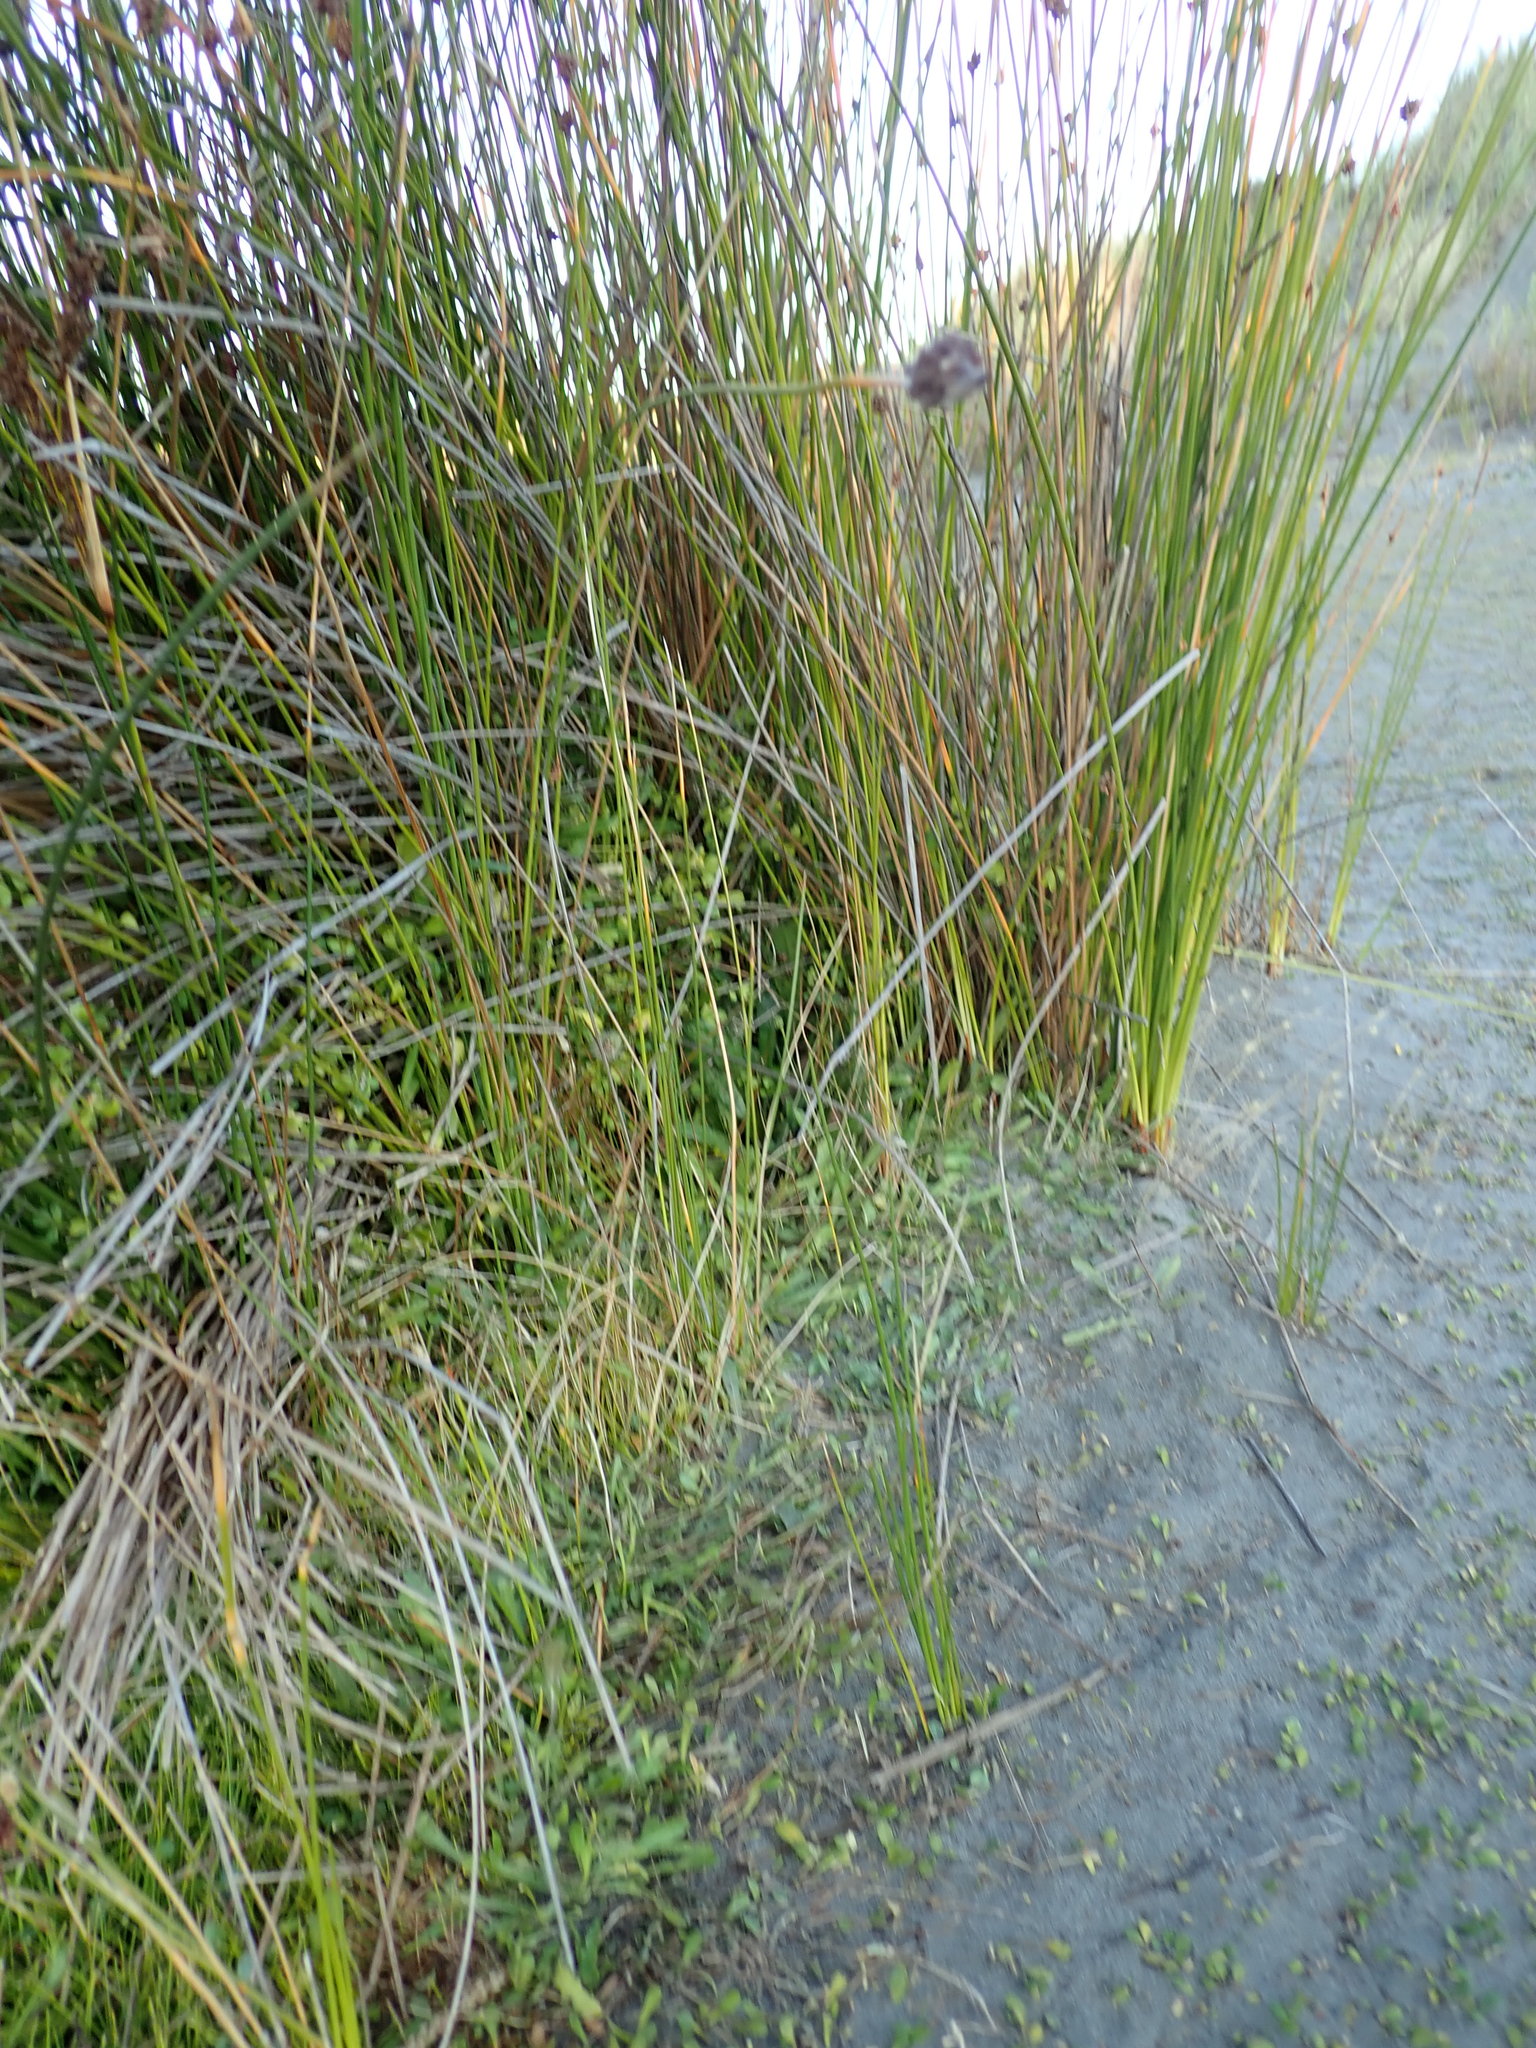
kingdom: Plantae
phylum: Tracheophyta
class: Magnoliopsida
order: Apiales
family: Apiaceae
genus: Apium
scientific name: Apium prostratum
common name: Prostrate marshwort
